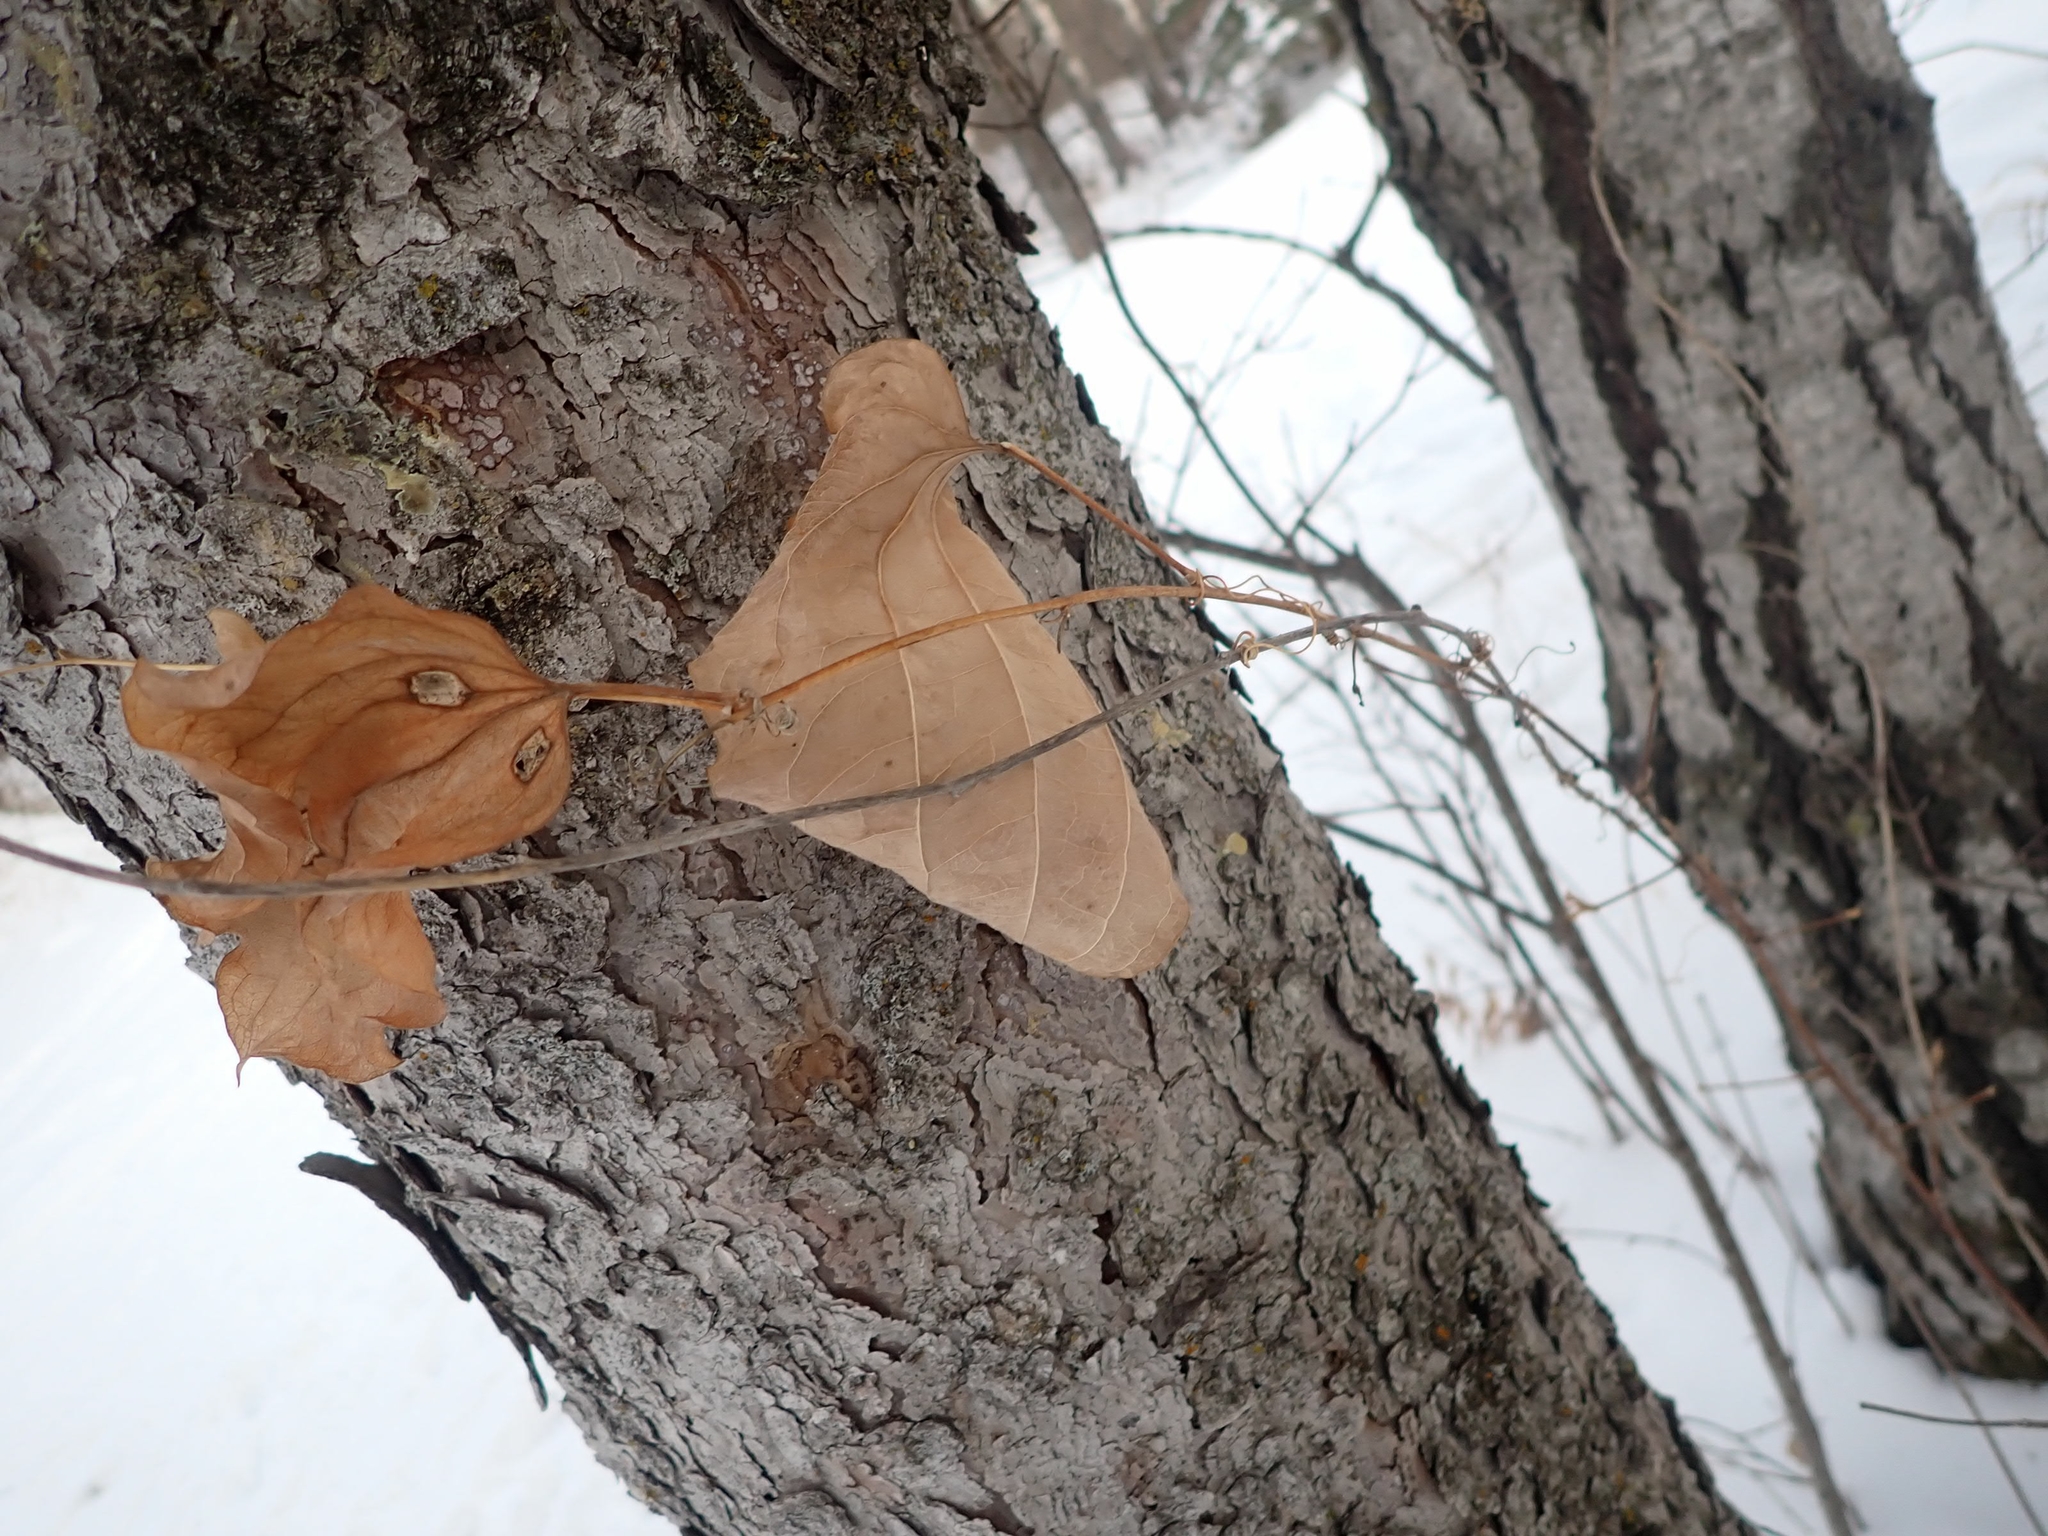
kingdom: Plantae
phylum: Tracheophyta
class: Liliopsida
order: Liliales
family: Smilacaceae
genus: Smilax
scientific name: Smilax lasioneura
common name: Blue ridge carrionflower
